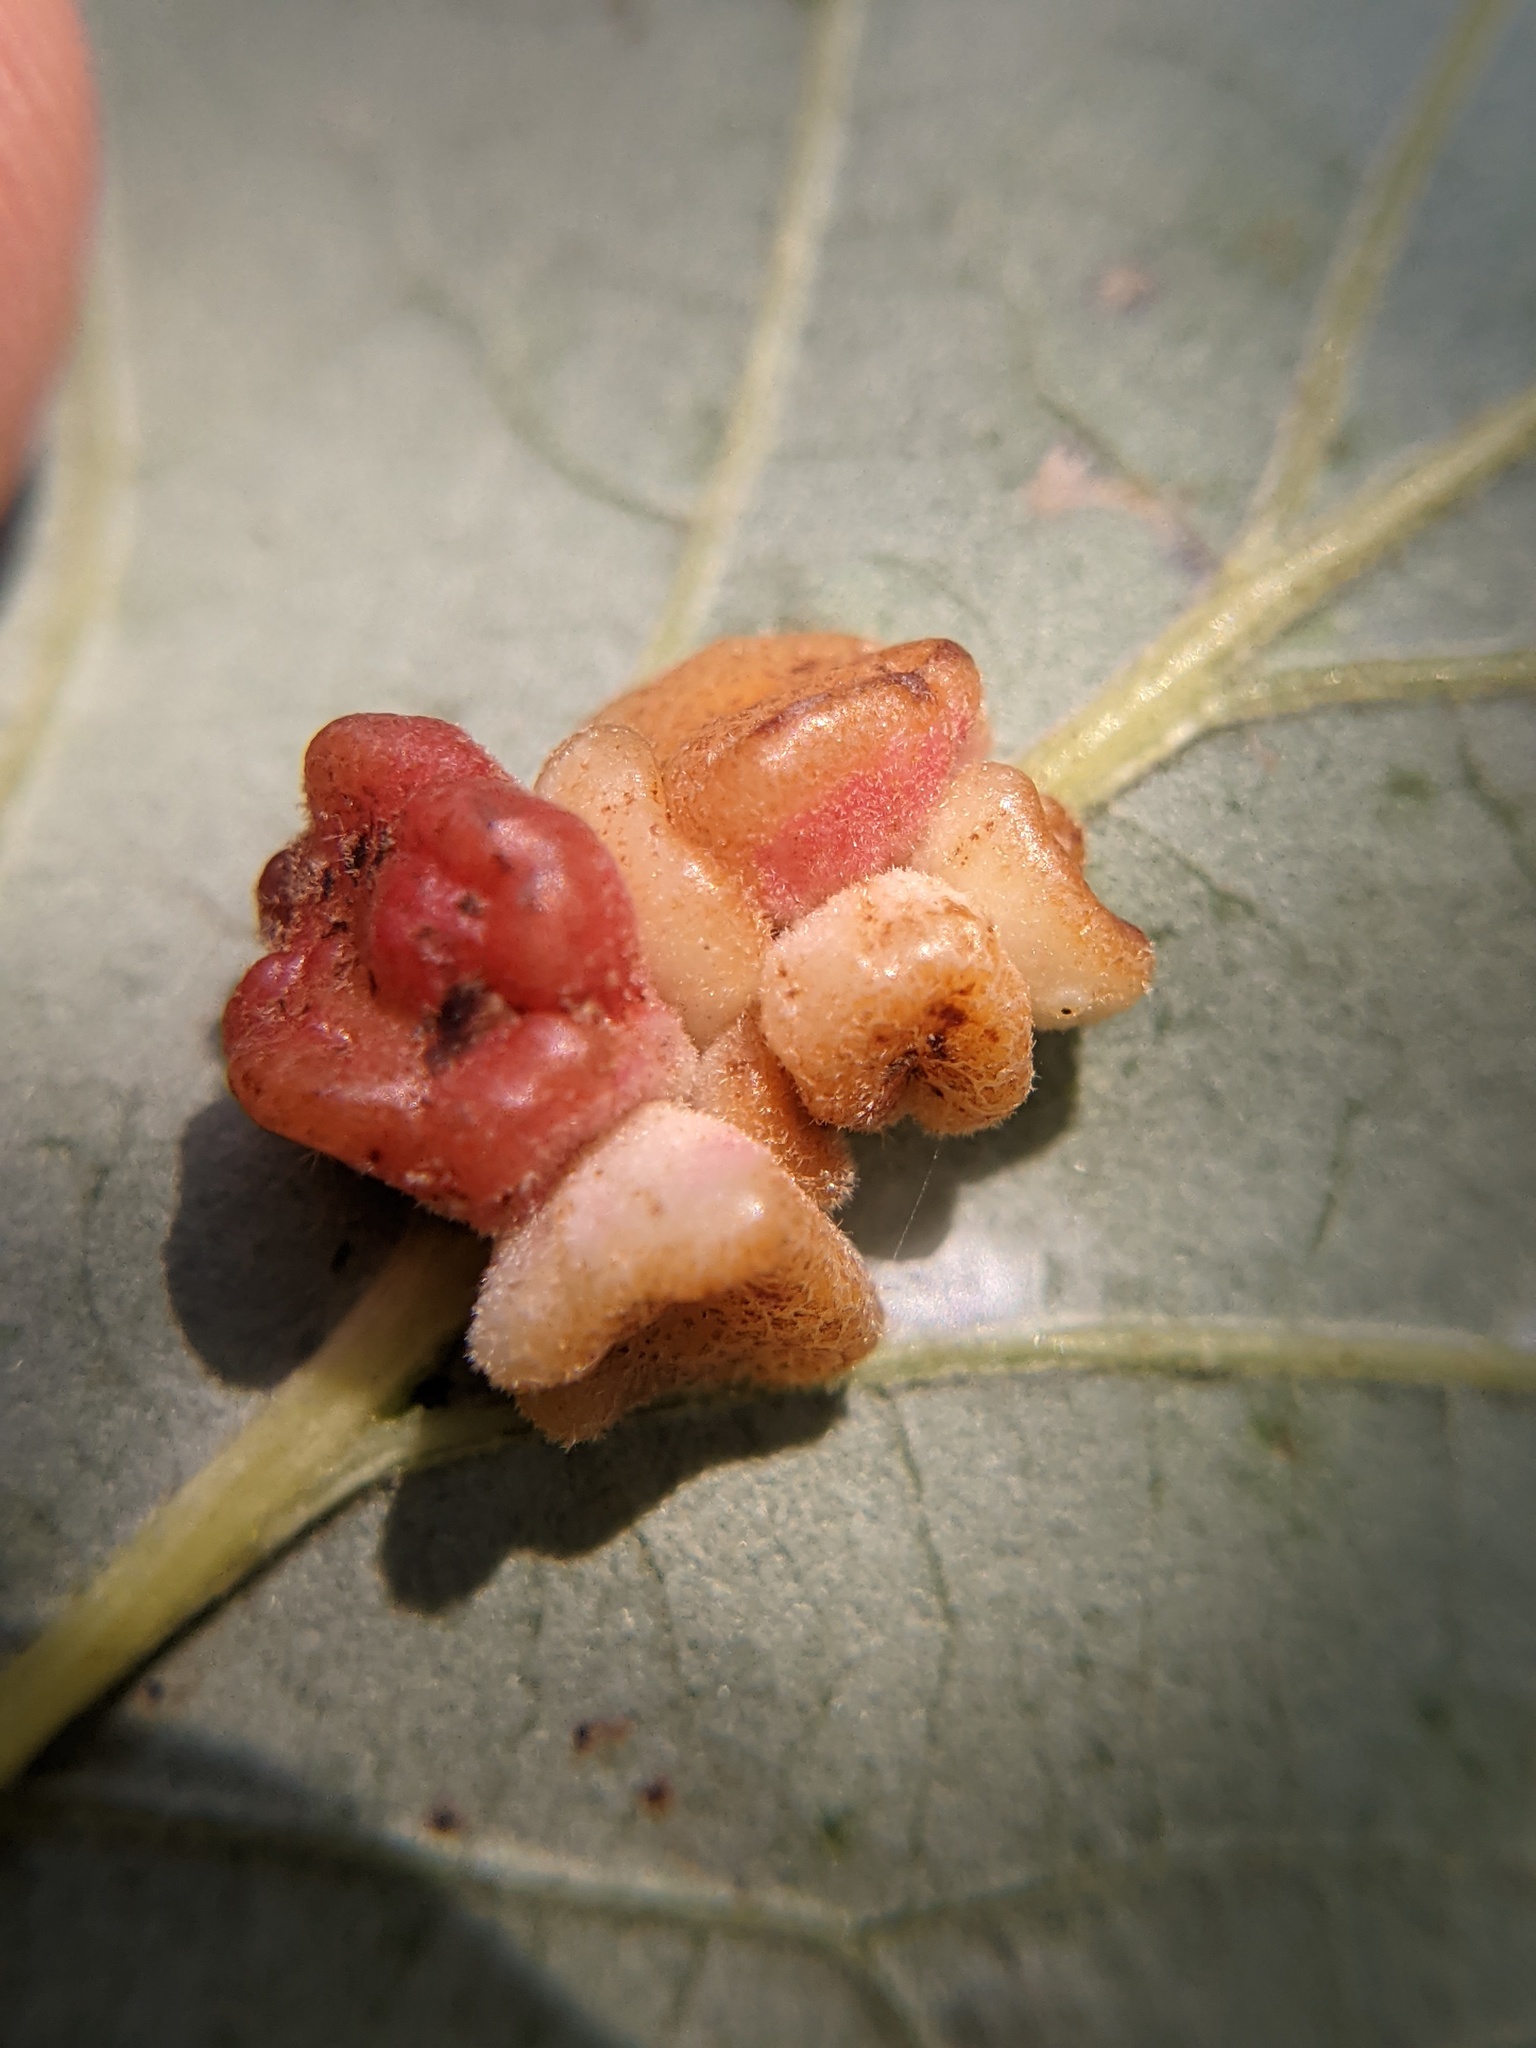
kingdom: Animalia
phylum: Arthropoda
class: Insecta
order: Hymenoptera
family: Cynipidae
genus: Andricus
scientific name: Andricus
